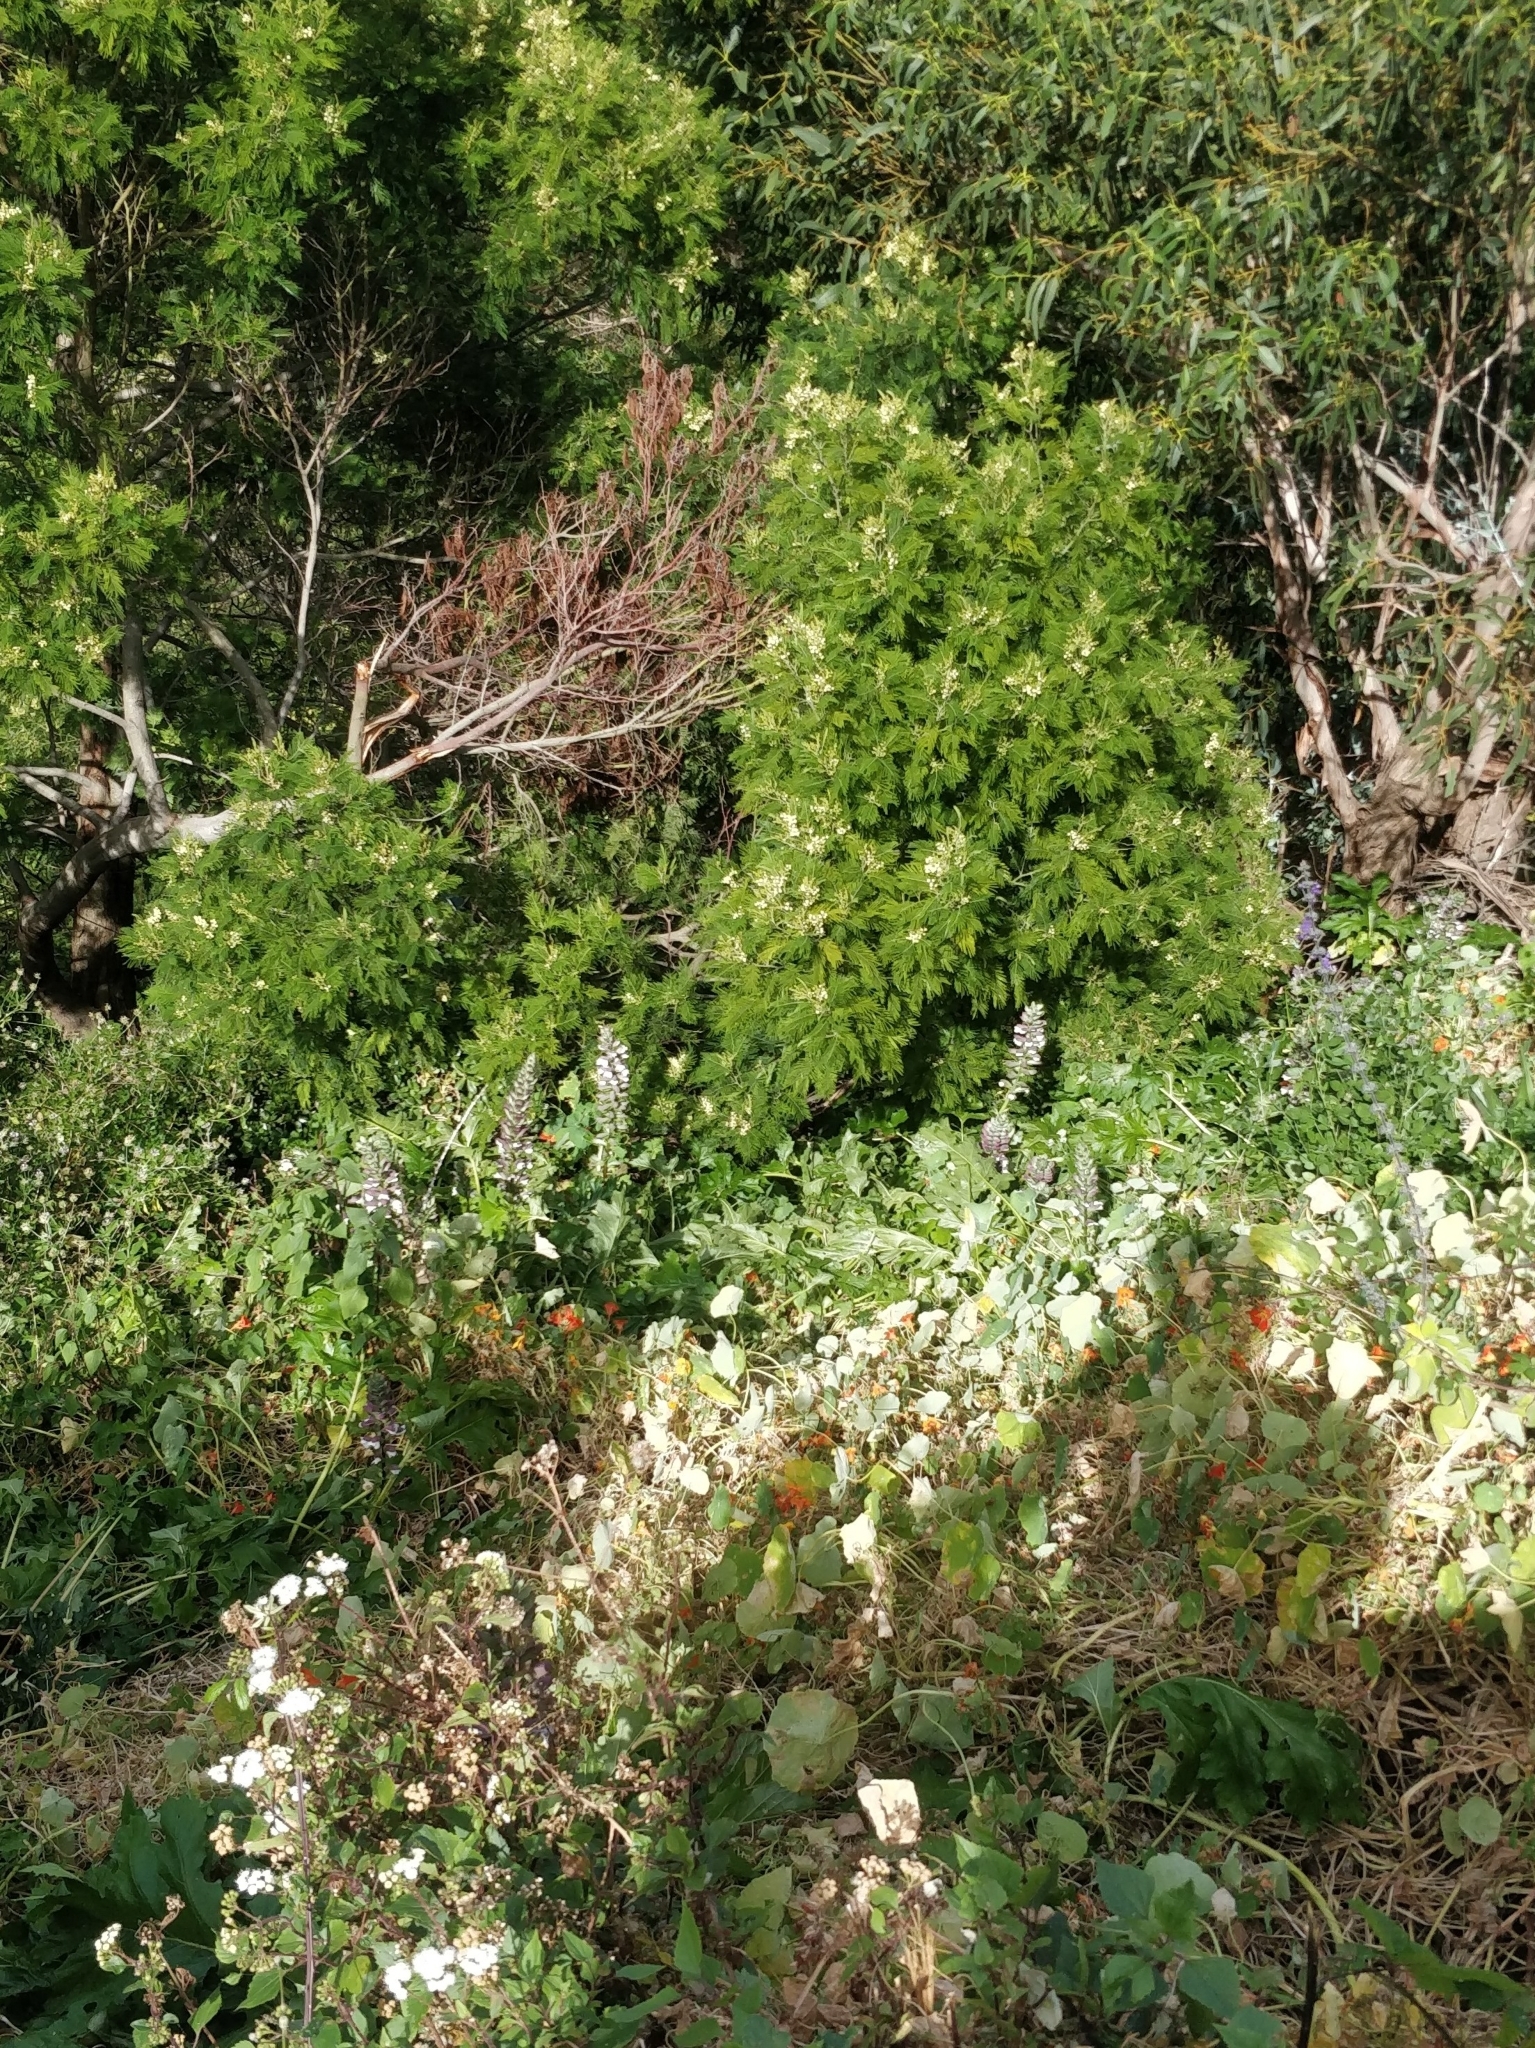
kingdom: Plantae
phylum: Tracheophyta
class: Magnoliopsida
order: Lamiales
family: Acanthaceae
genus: Acanthus
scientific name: Acanthus mollis
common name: Bear's-breech
